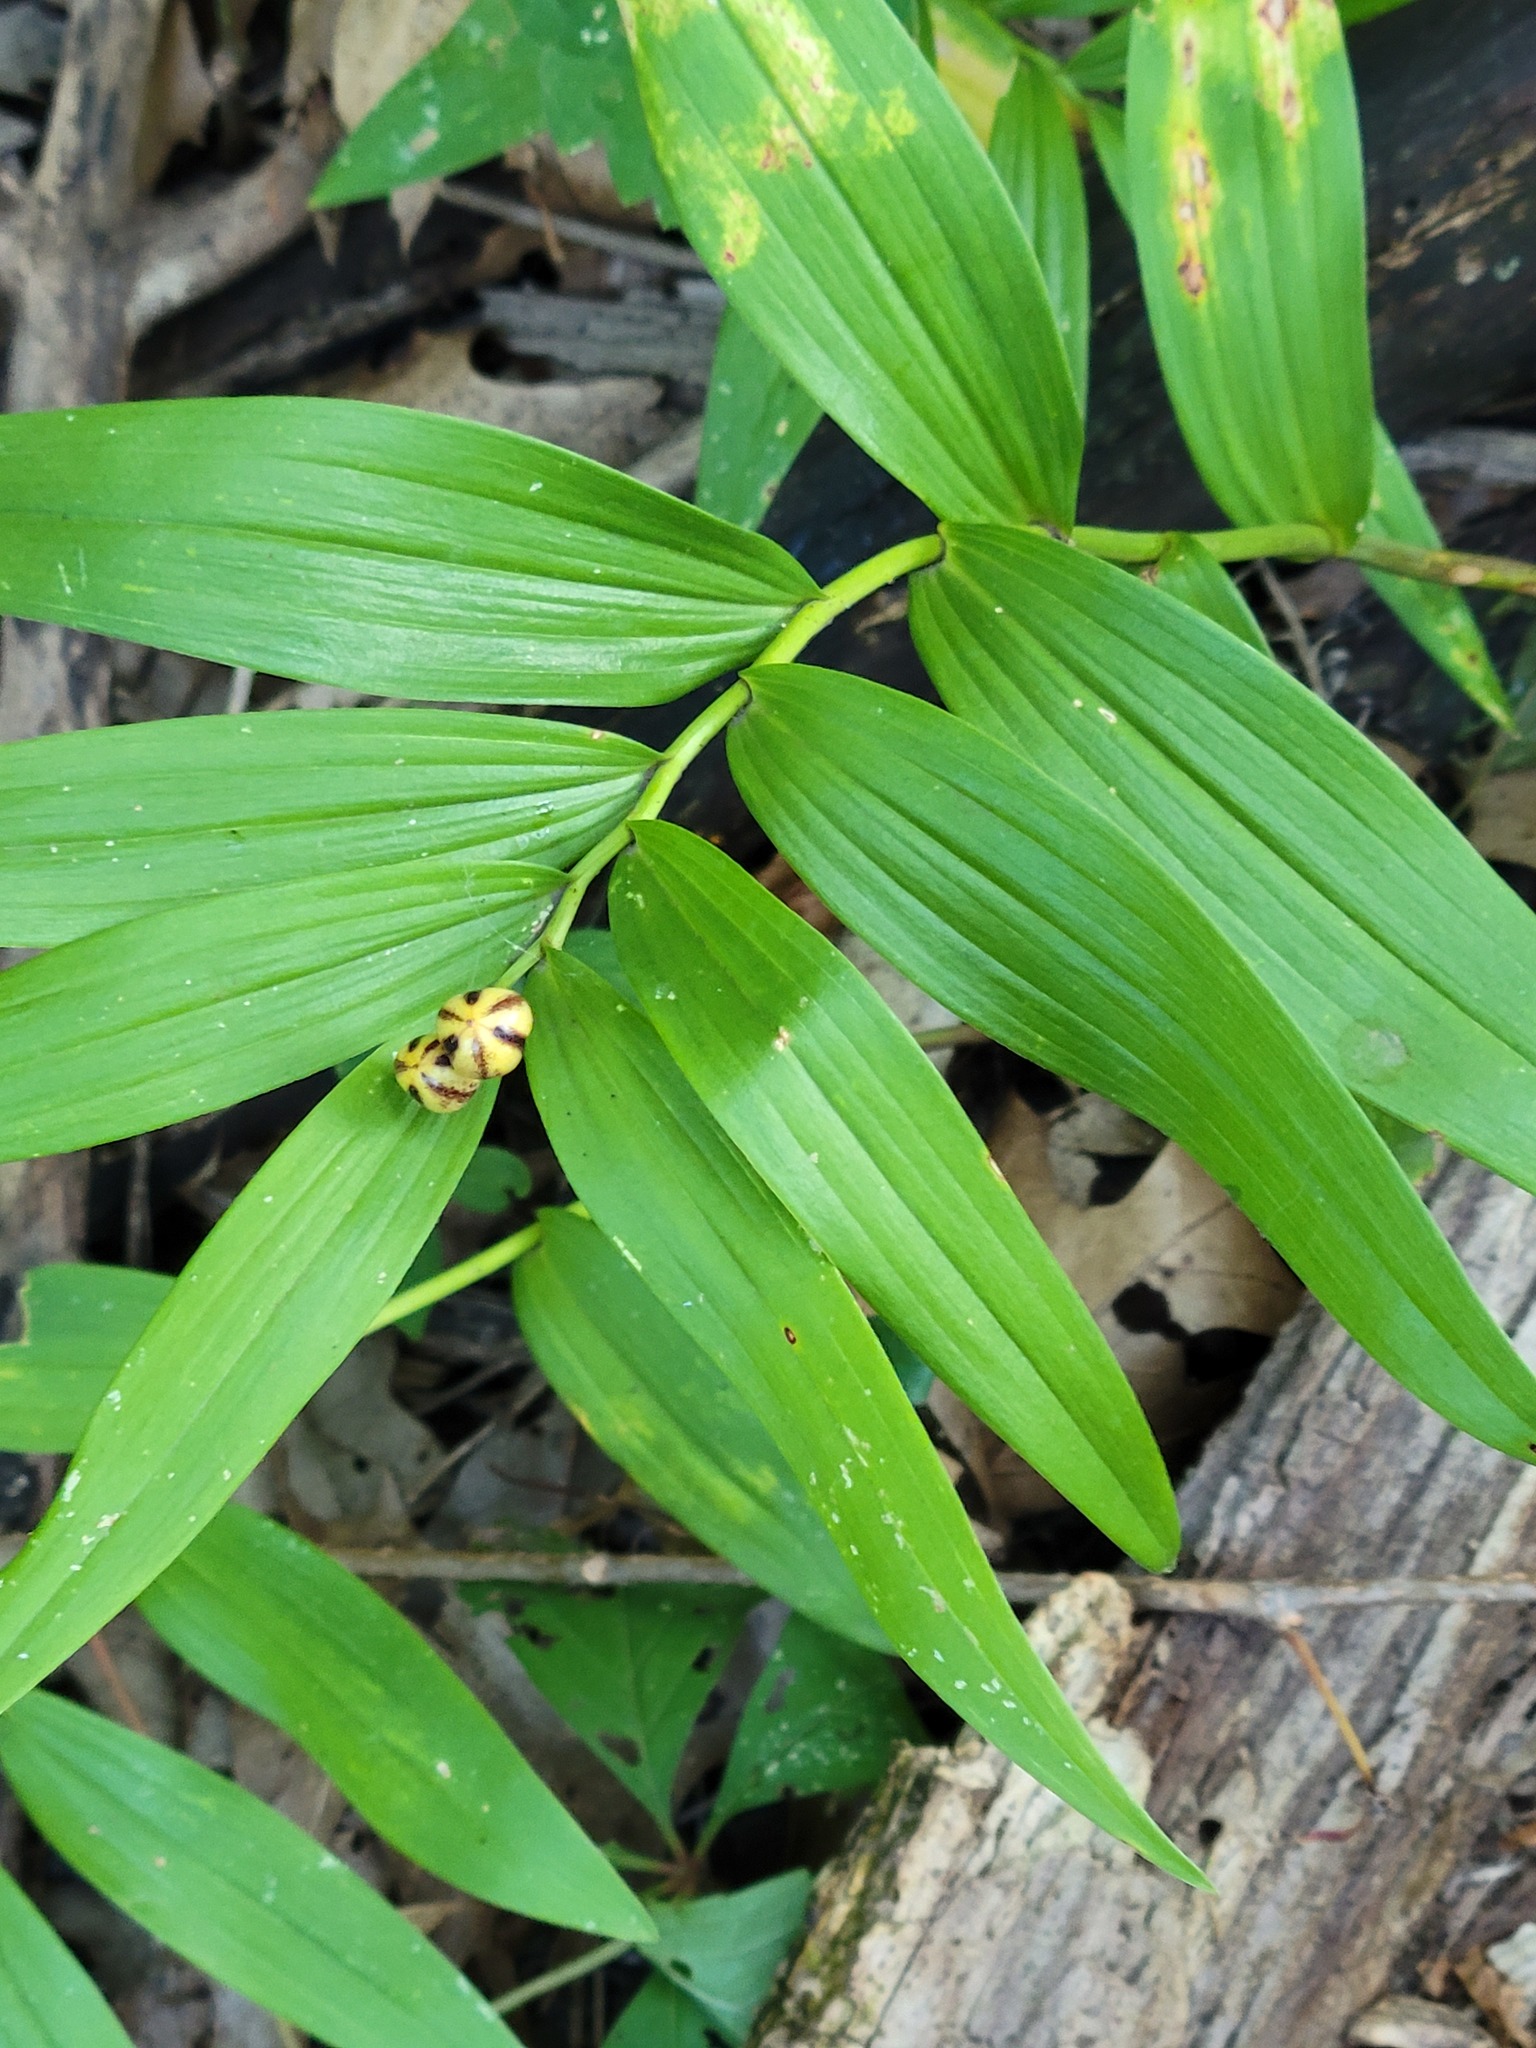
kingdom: Plantae
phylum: Tracheophyta
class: Liliopsida
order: Asparagales
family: Asparagaceae
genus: Maianthemum
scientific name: Maianthemum stellatum
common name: Little false solomon's seal
